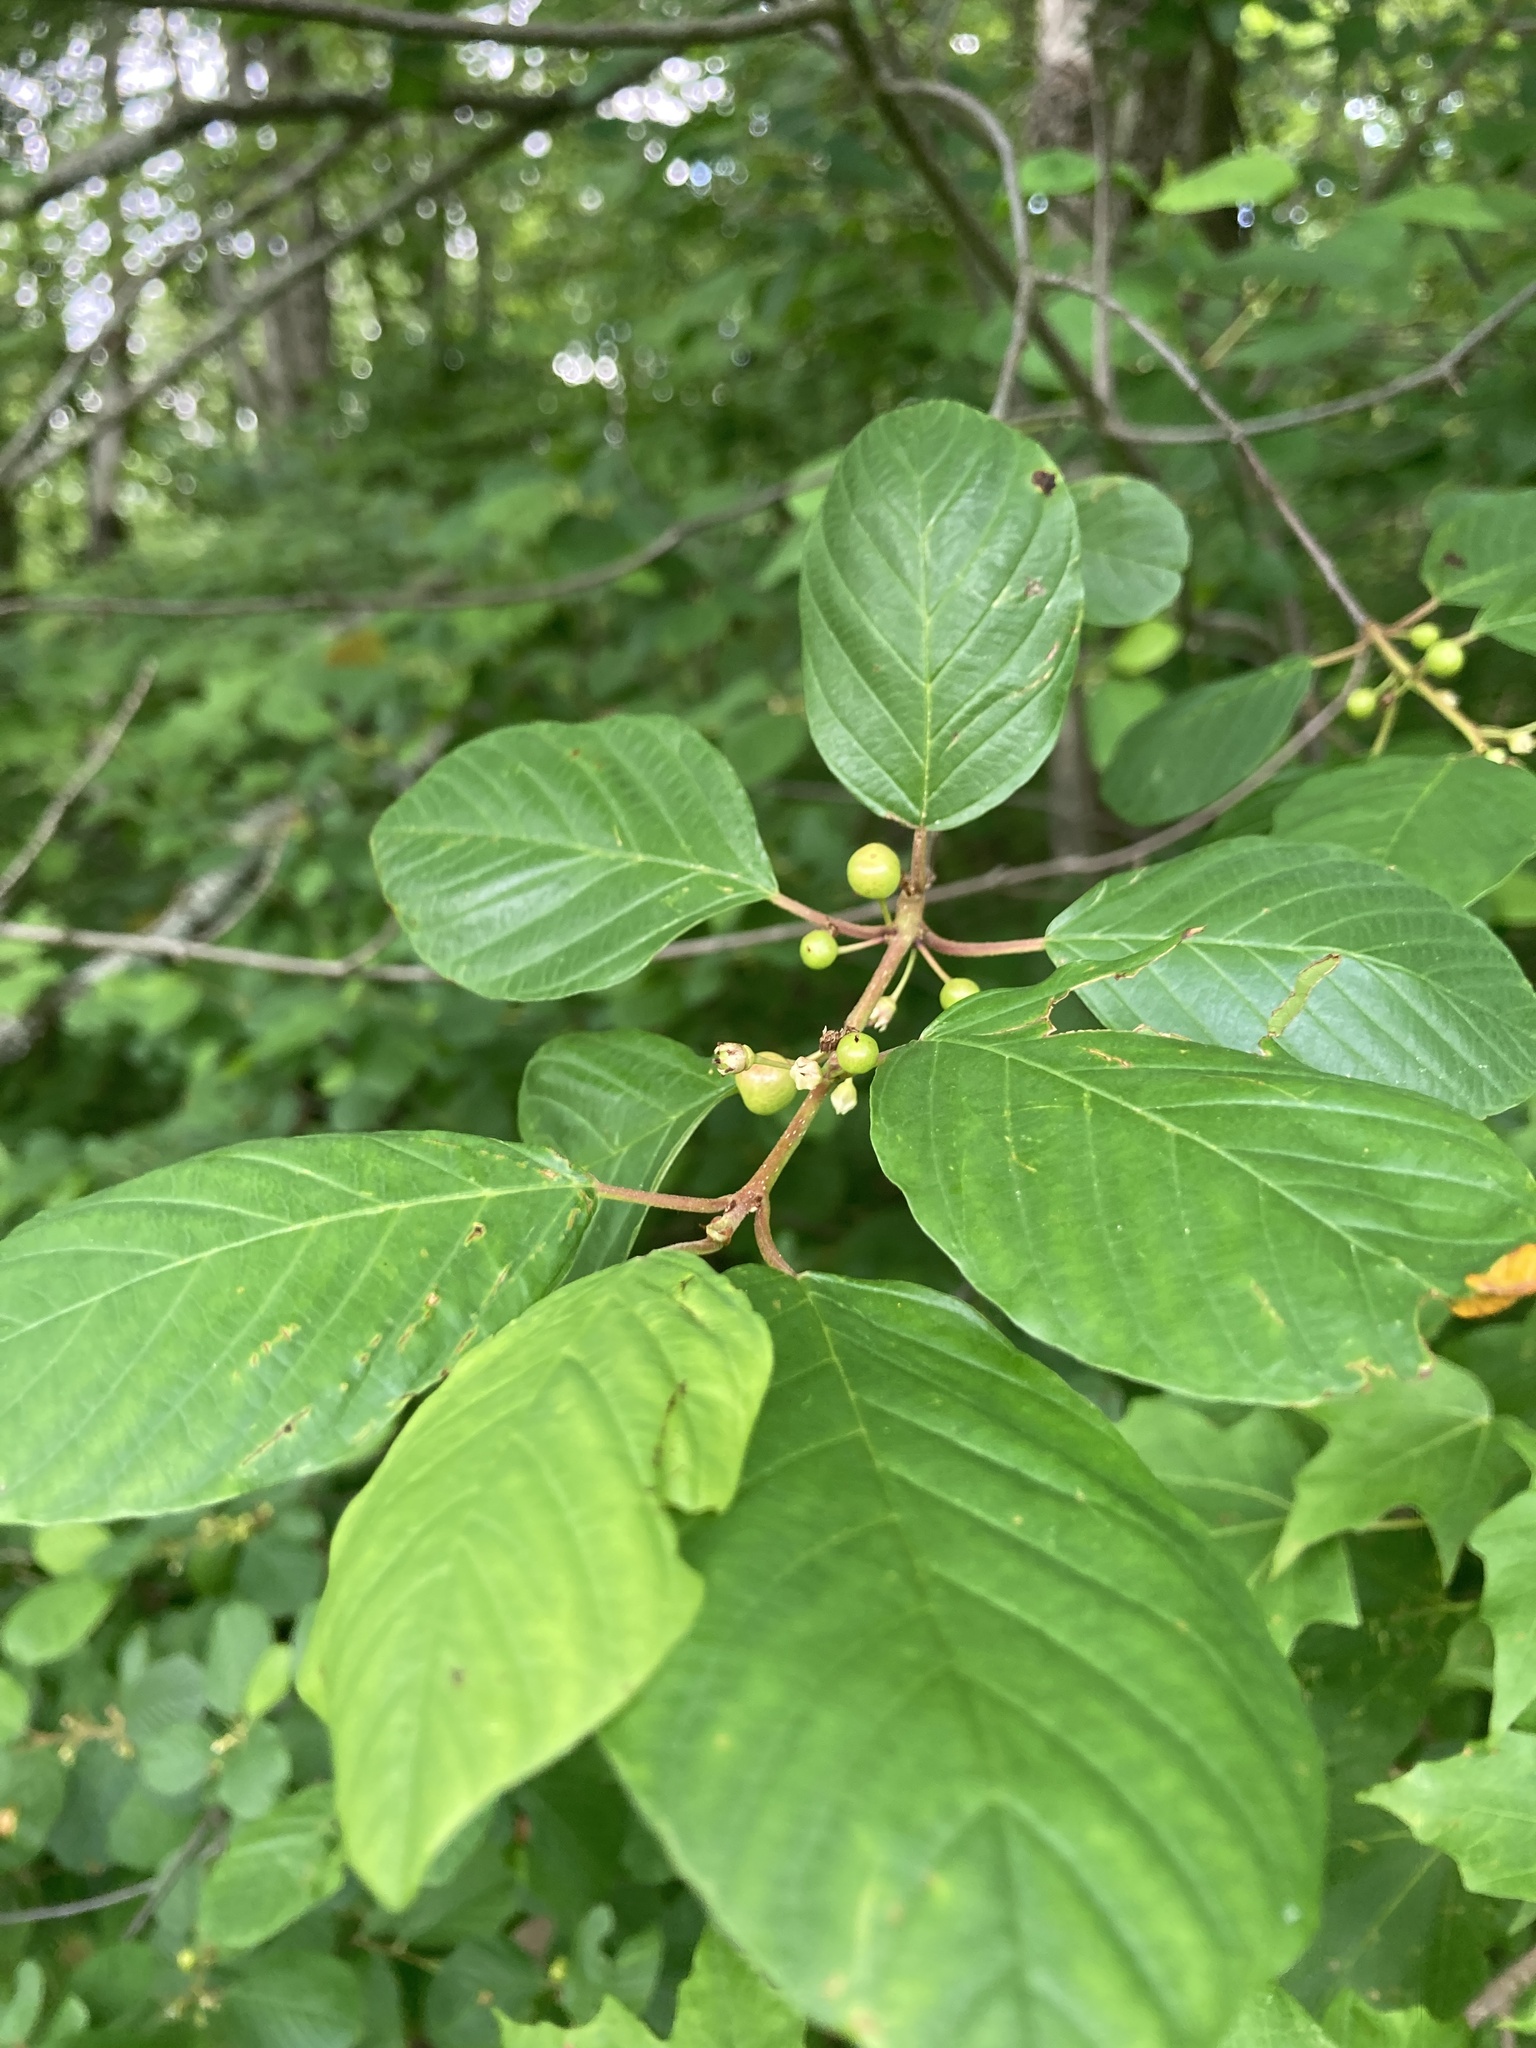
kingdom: Plantae
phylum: Tracheophyta
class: Magnoliopsida
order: Rosales
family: Rhamnaceae
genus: Frangula
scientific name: Frangula alnus
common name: Alder buckthorn
